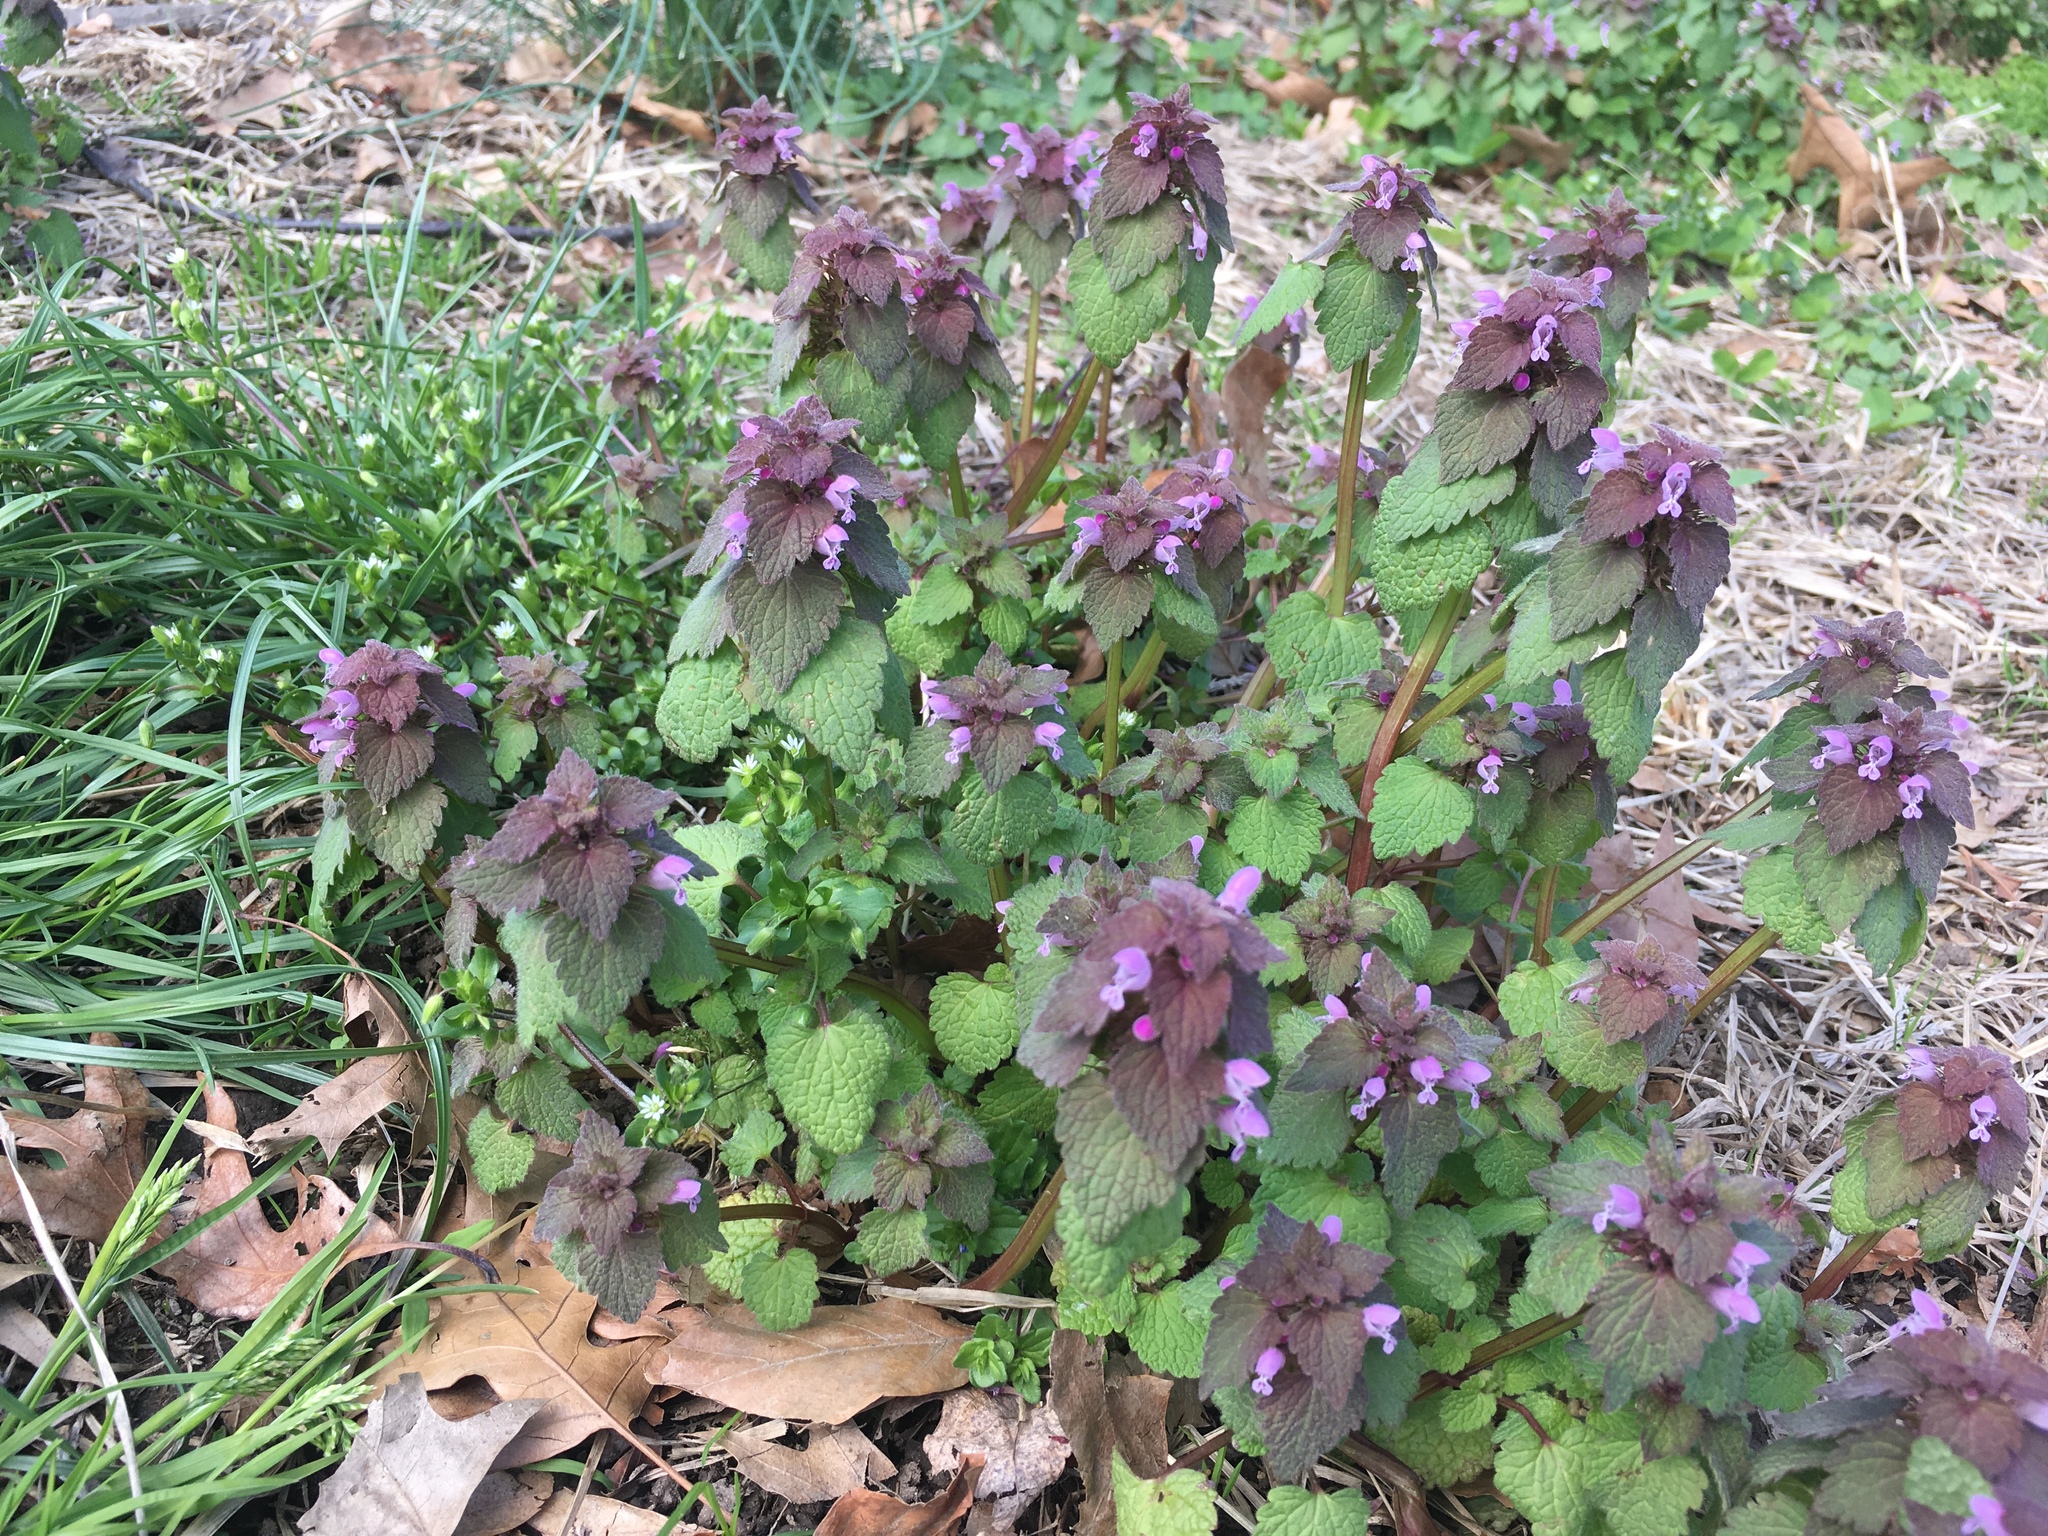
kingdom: Plantae
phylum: Tracheophyta
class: Magnoliopsida
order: Lamiales
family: Lamiaceae
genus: Lamium
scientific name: Lamium purpureum
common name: Red dead-nettle
